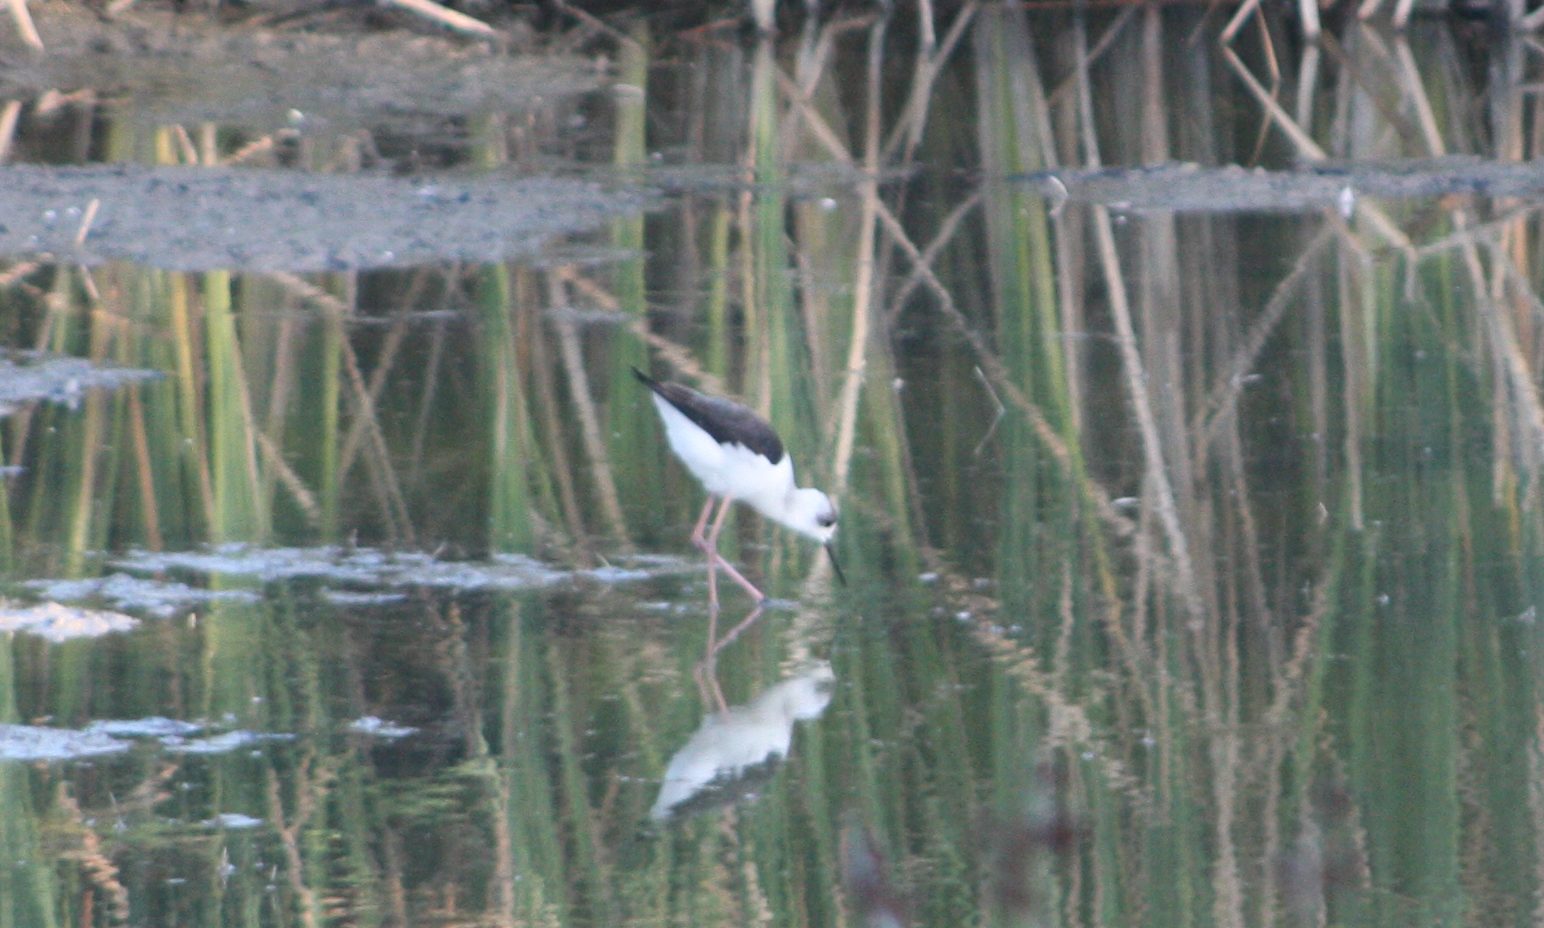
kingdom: Animalia
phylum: Chordata
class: Aves
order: Charadriiformes
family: Recurvirostridae
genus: Himantopus
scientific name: Himantopus leucocephalus
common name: White-headed stilt
